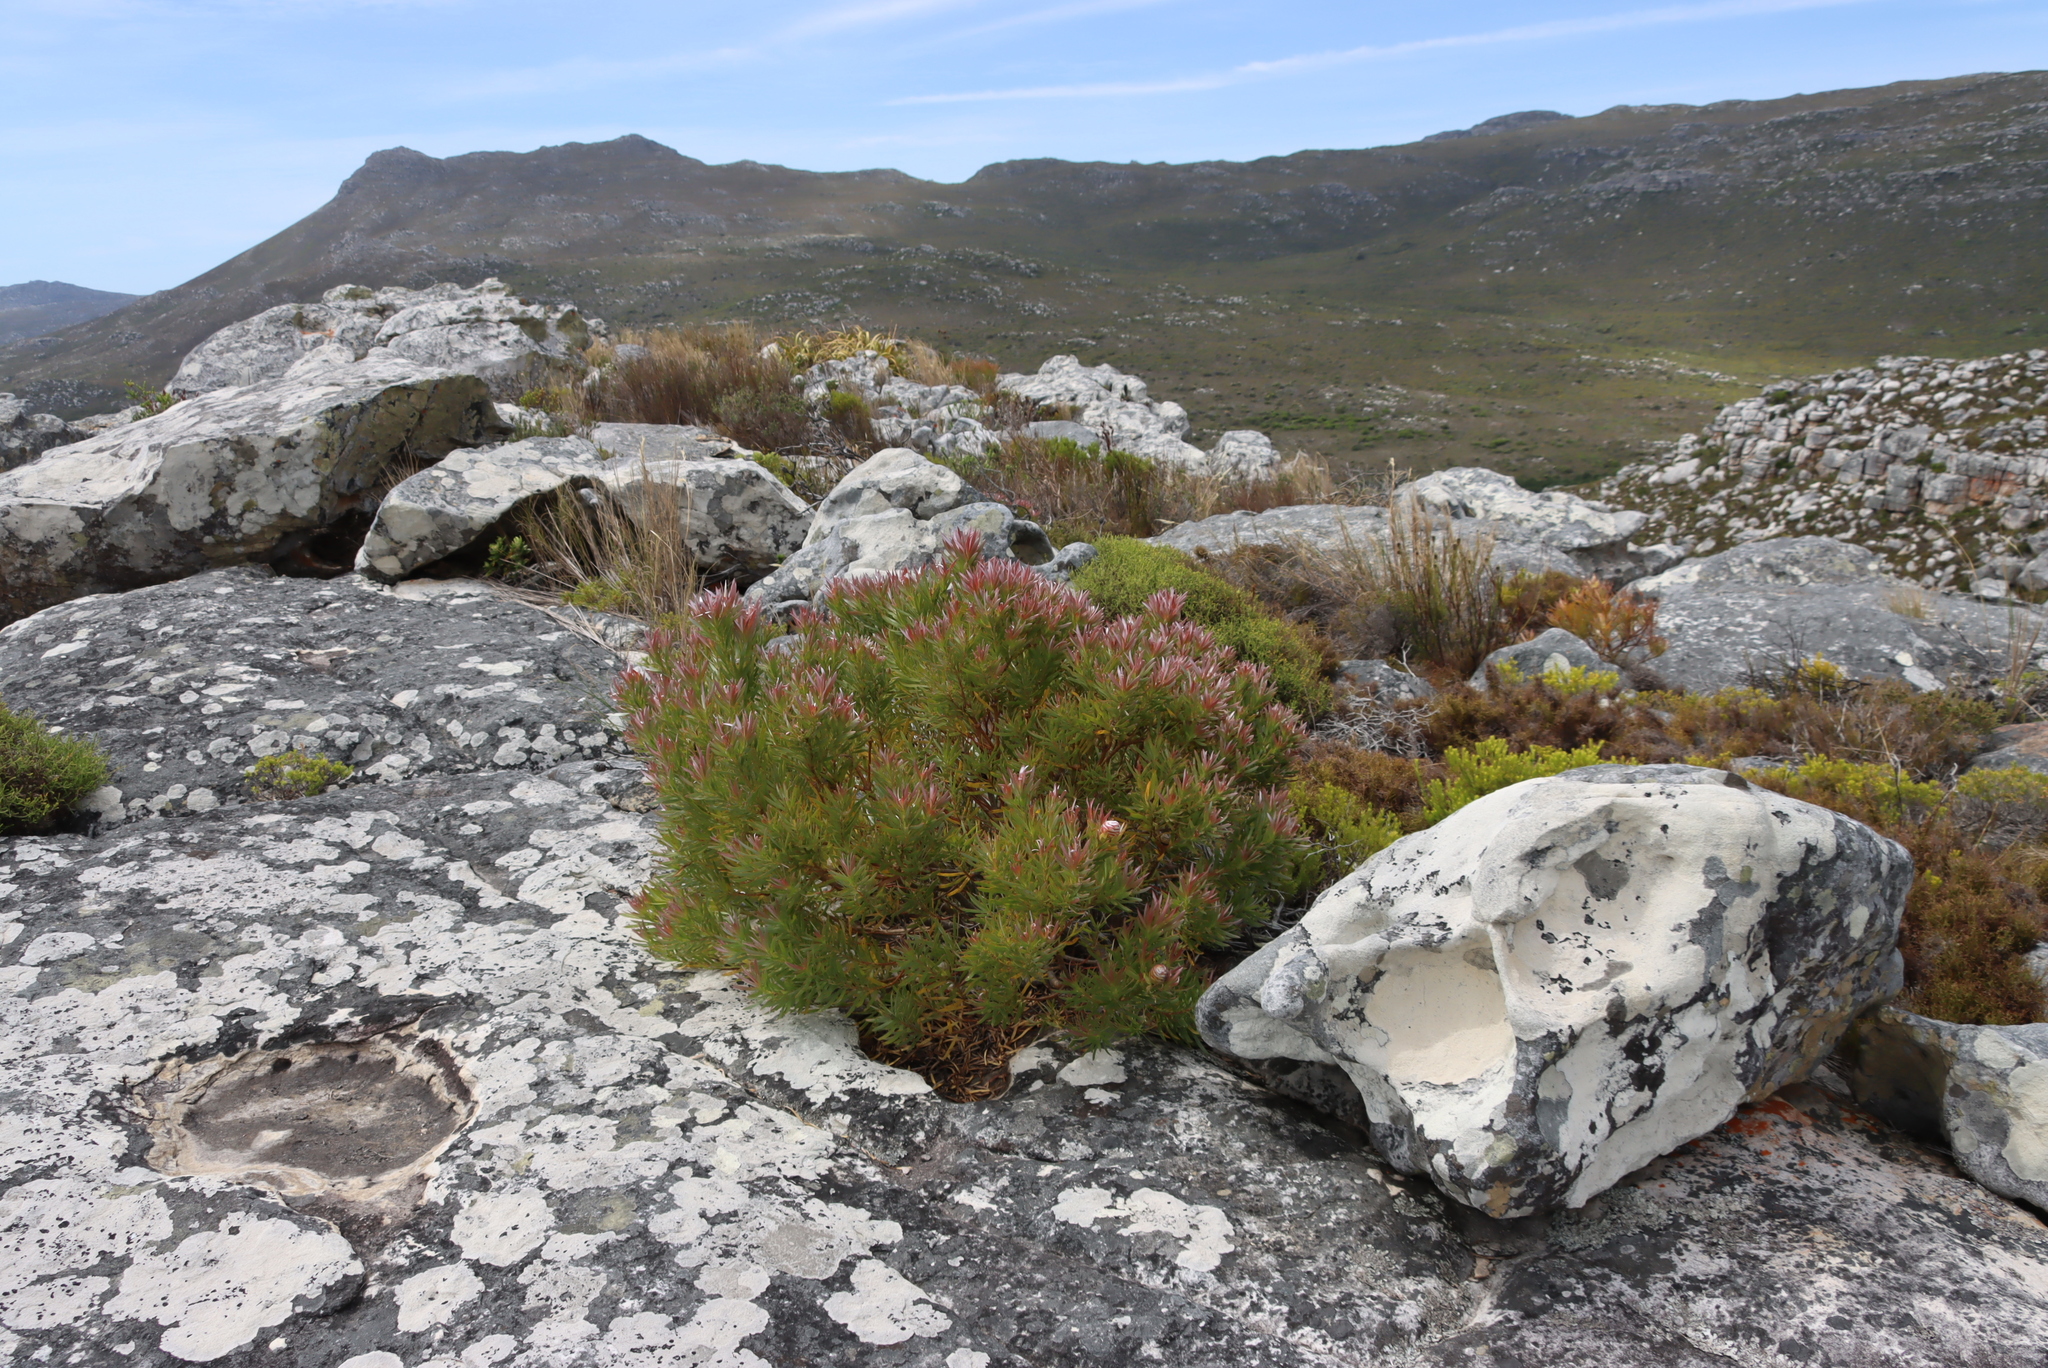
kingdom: Plantae
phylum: Tracheophyta
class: Magnoliopsida
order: Proteales
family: Proteaceae
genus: Leucadendron
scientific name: Leucadendron xanthoconus
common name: Sickle-leaf conebush
